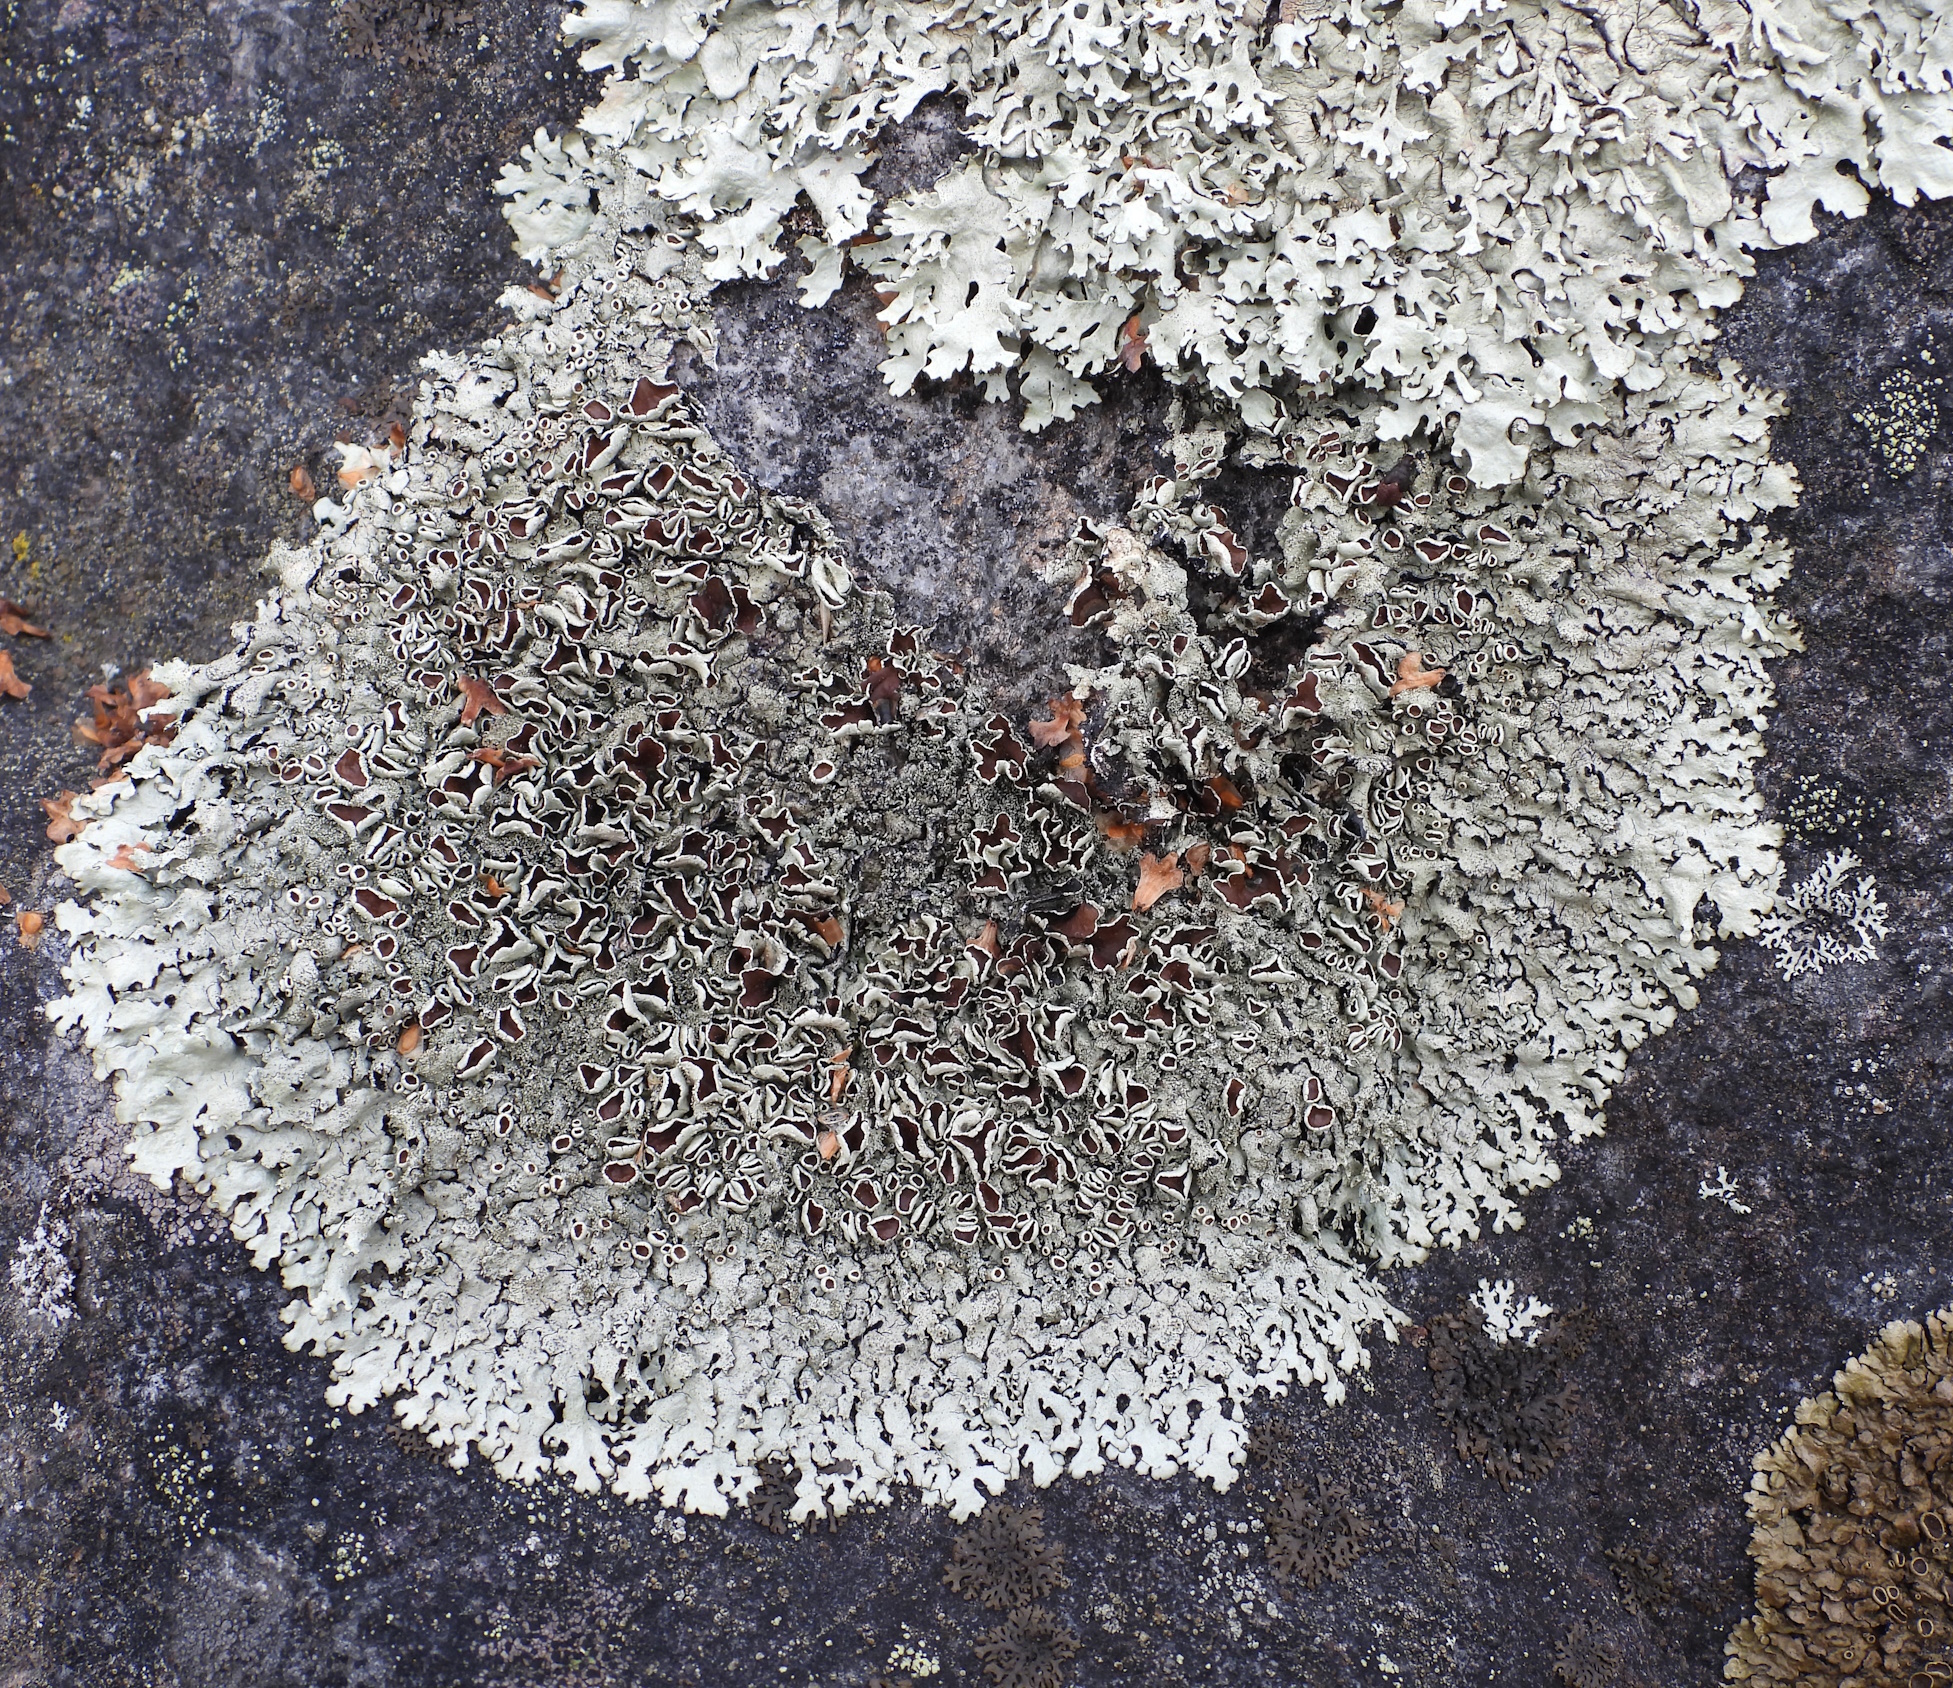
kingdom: Fungi
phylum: Ascomycota
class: Lecanoromycetes
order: Lecanorales
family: Parmeliaceae
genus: Xanthoparmelia
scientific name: Xanthoparmelia conspersa
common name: Peppered rock shield
